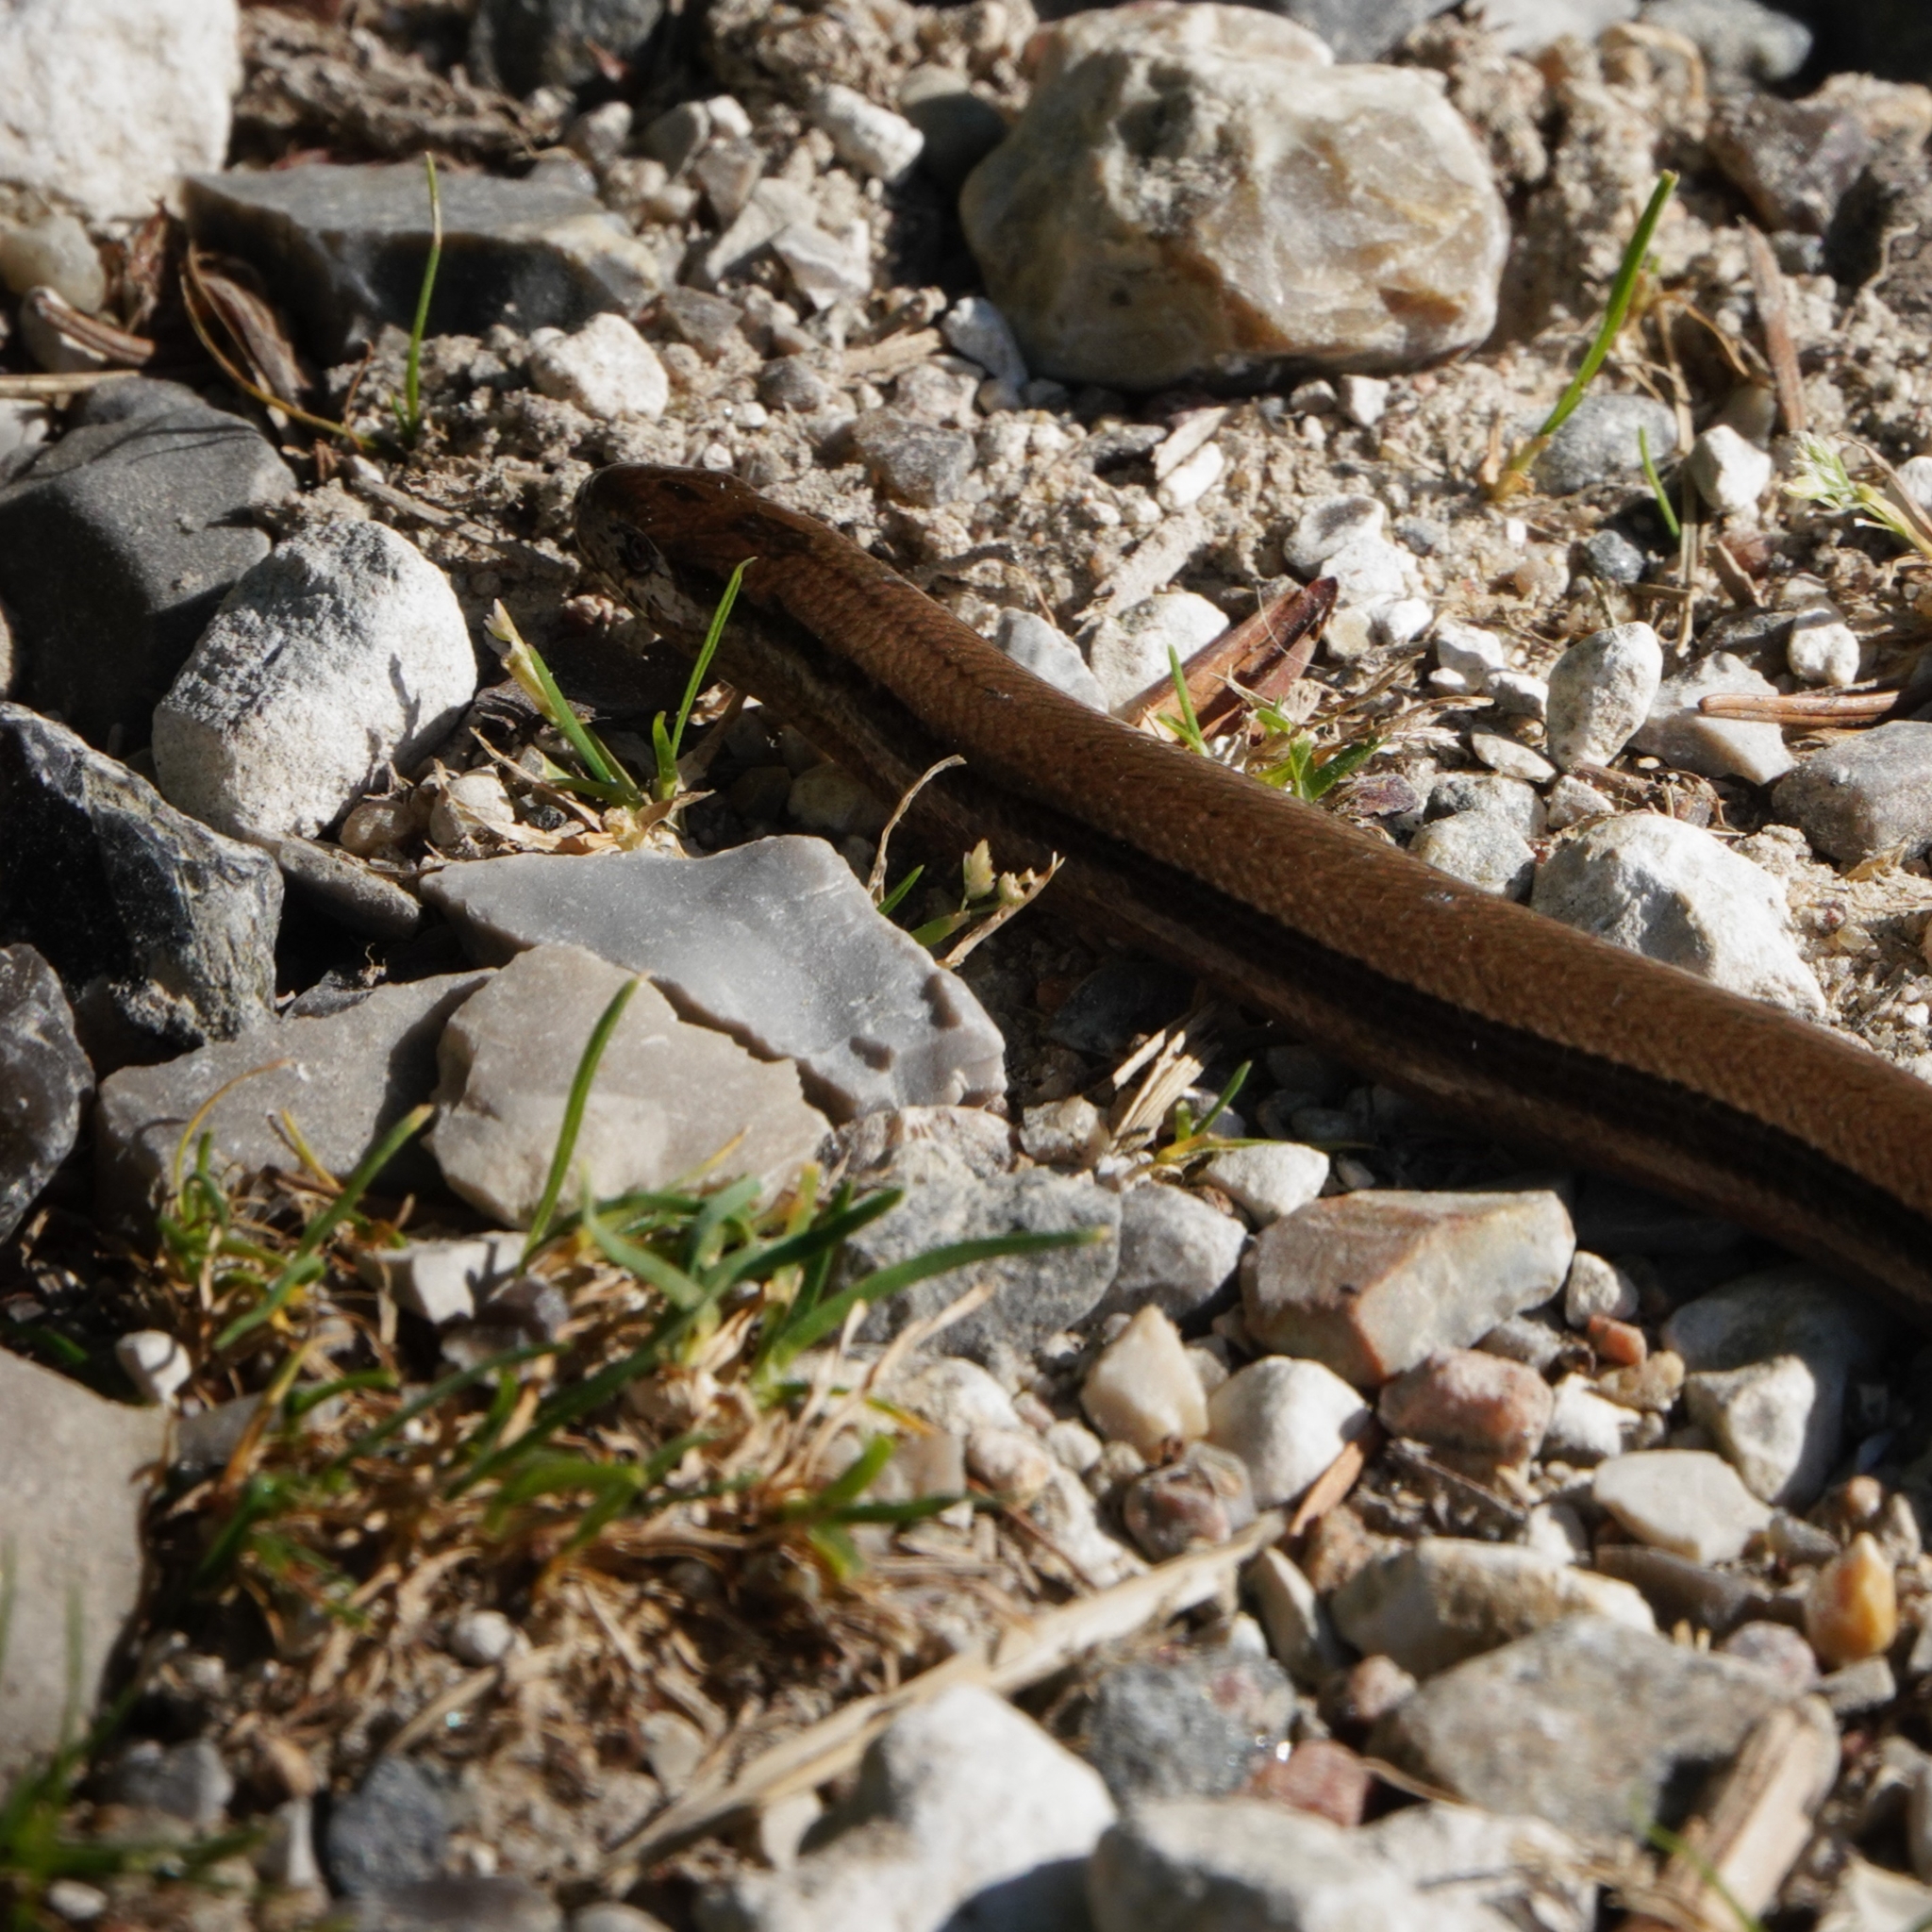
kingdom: Animalia
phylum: Chordata
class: Squamata
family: Anguidae
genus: Anguis
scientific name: Anguis fragilis
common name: Slow worm
